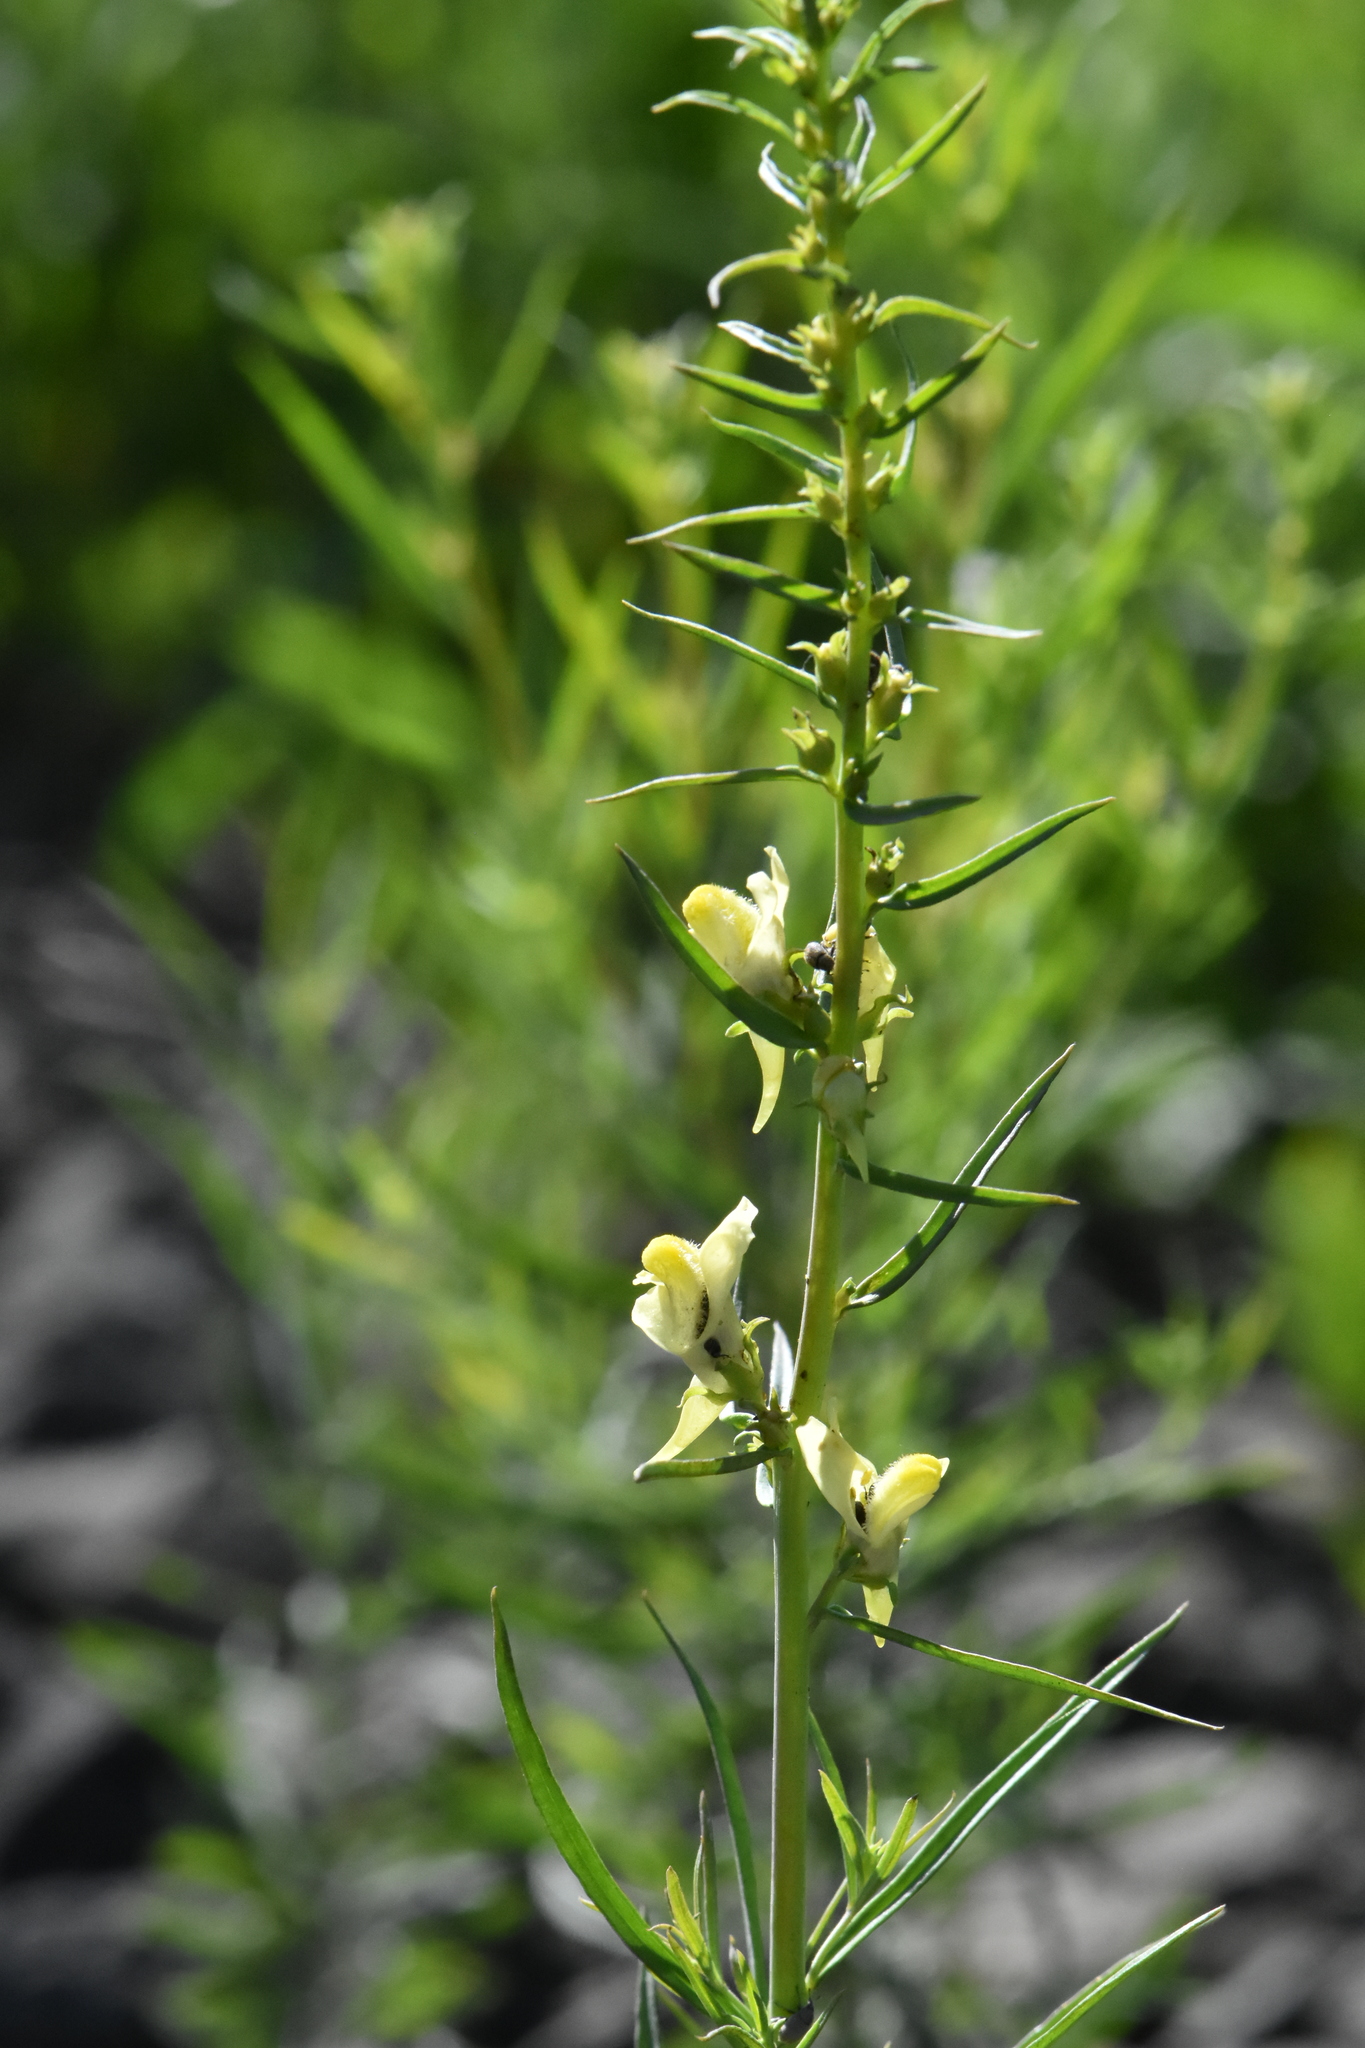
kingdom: Plantae
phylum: Tracheophyta
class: Magnoliopsida
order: Lamiales
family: Plantaginaceae
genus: Linaria
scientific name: Linaria vulgaris
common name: Butter and eggs
